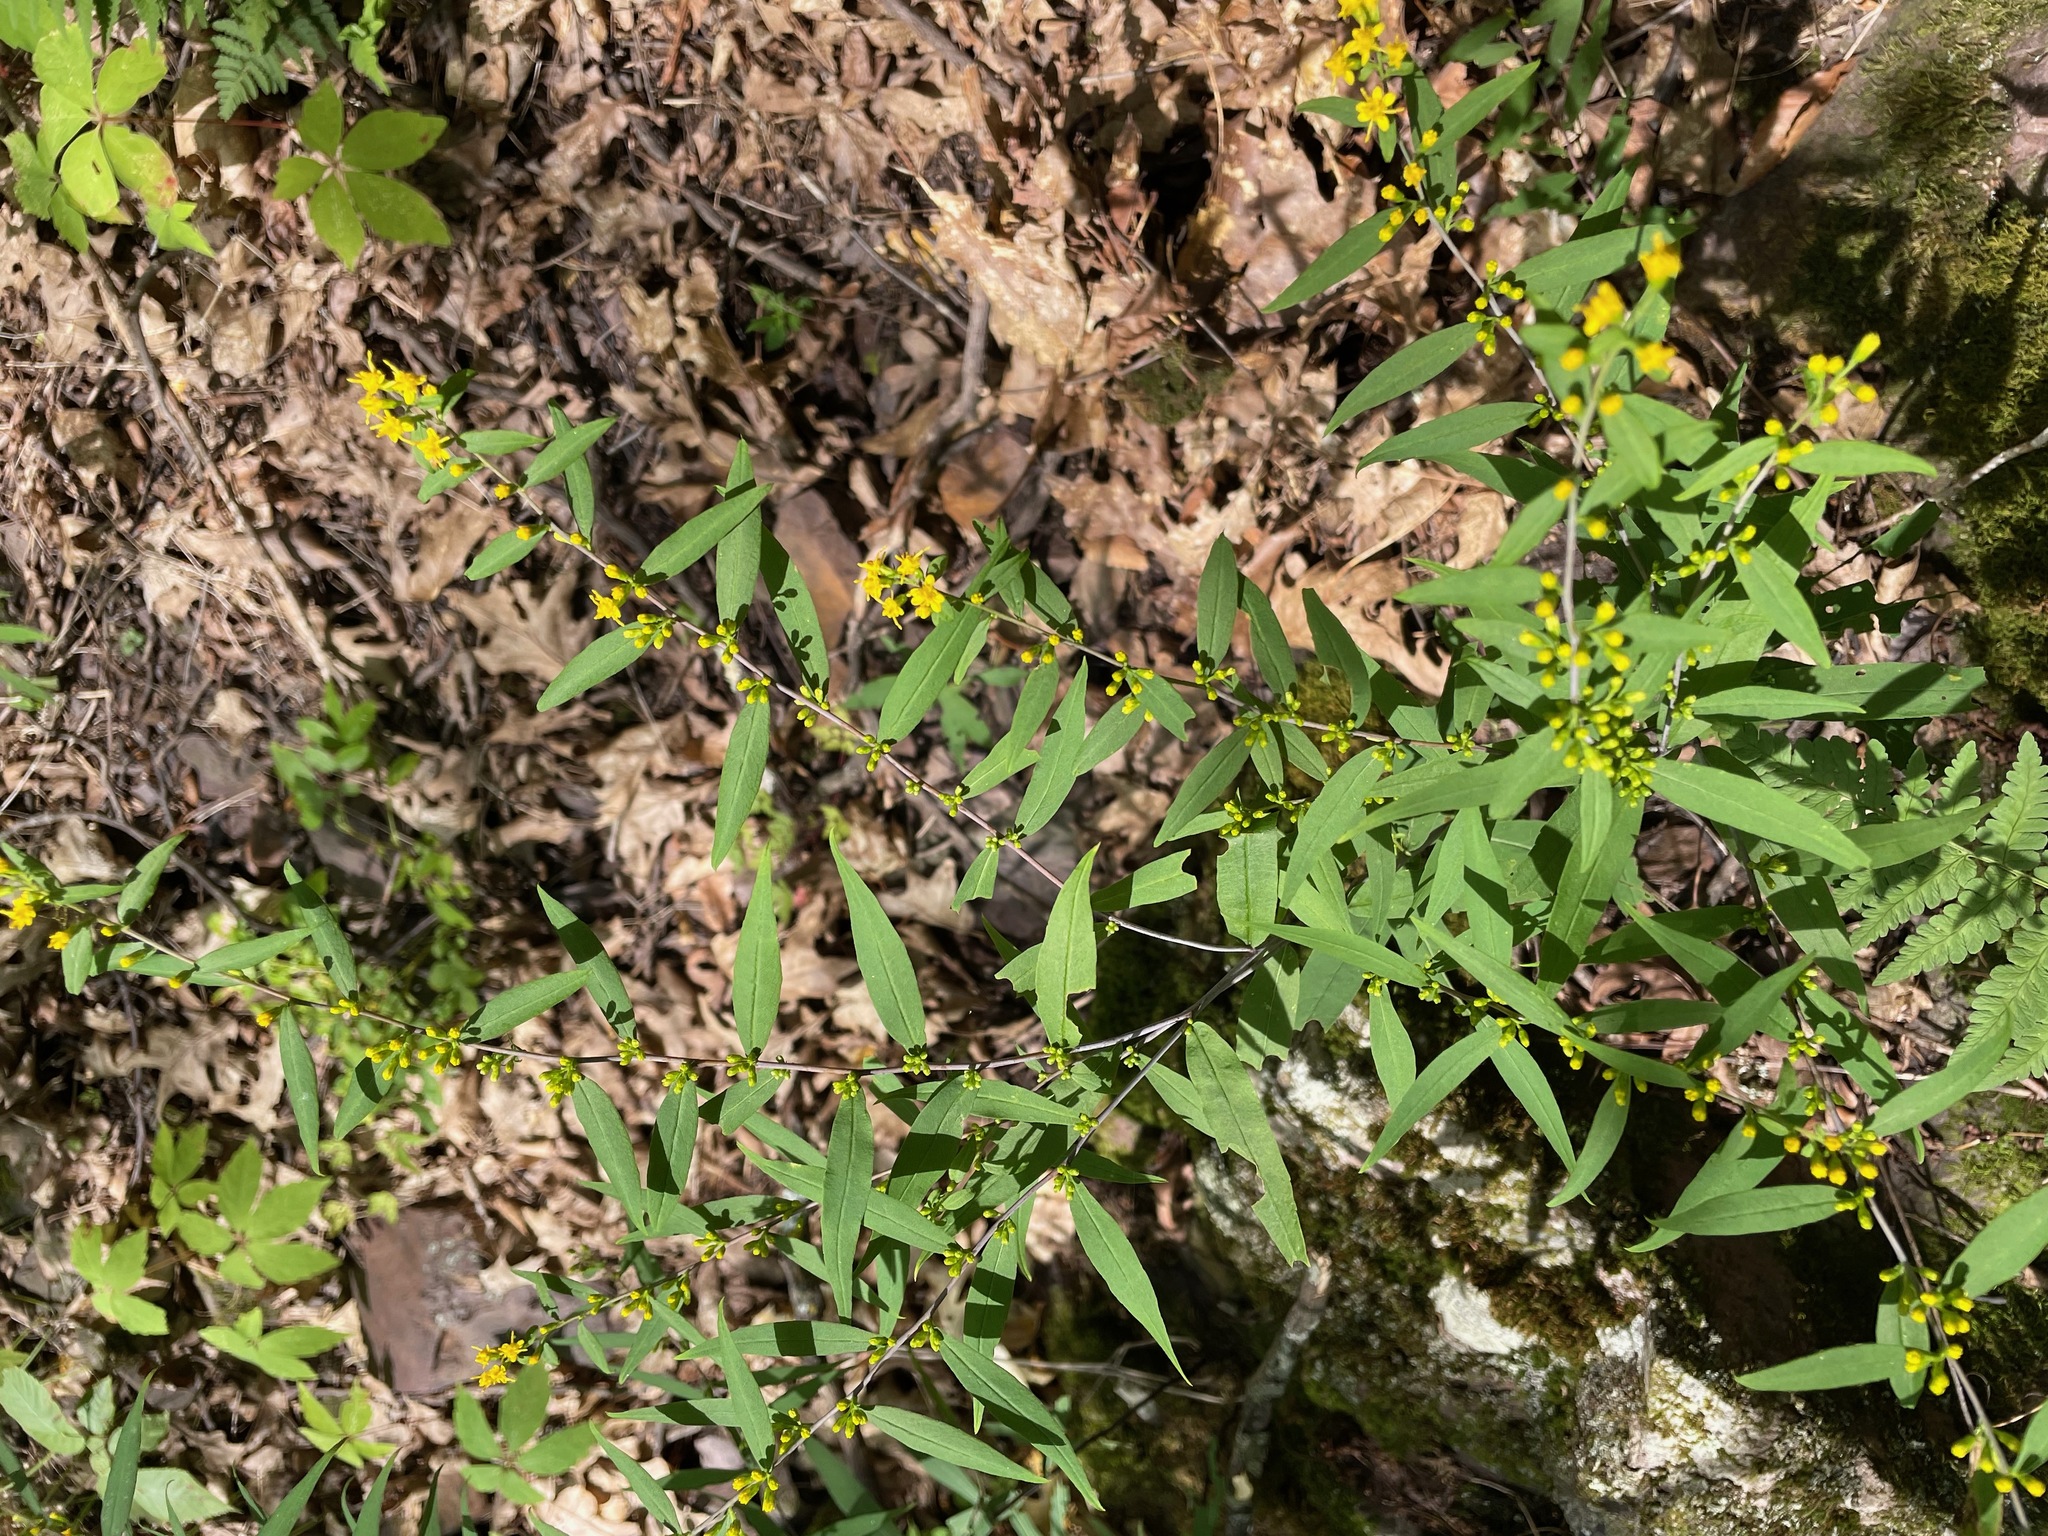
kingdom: Plantae
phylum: Tracheophyta
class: Magnoliopsida
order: Asterales
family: Asteraceae
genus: Solidago
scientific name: Solidago caesia
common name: Woodland goldenrod
